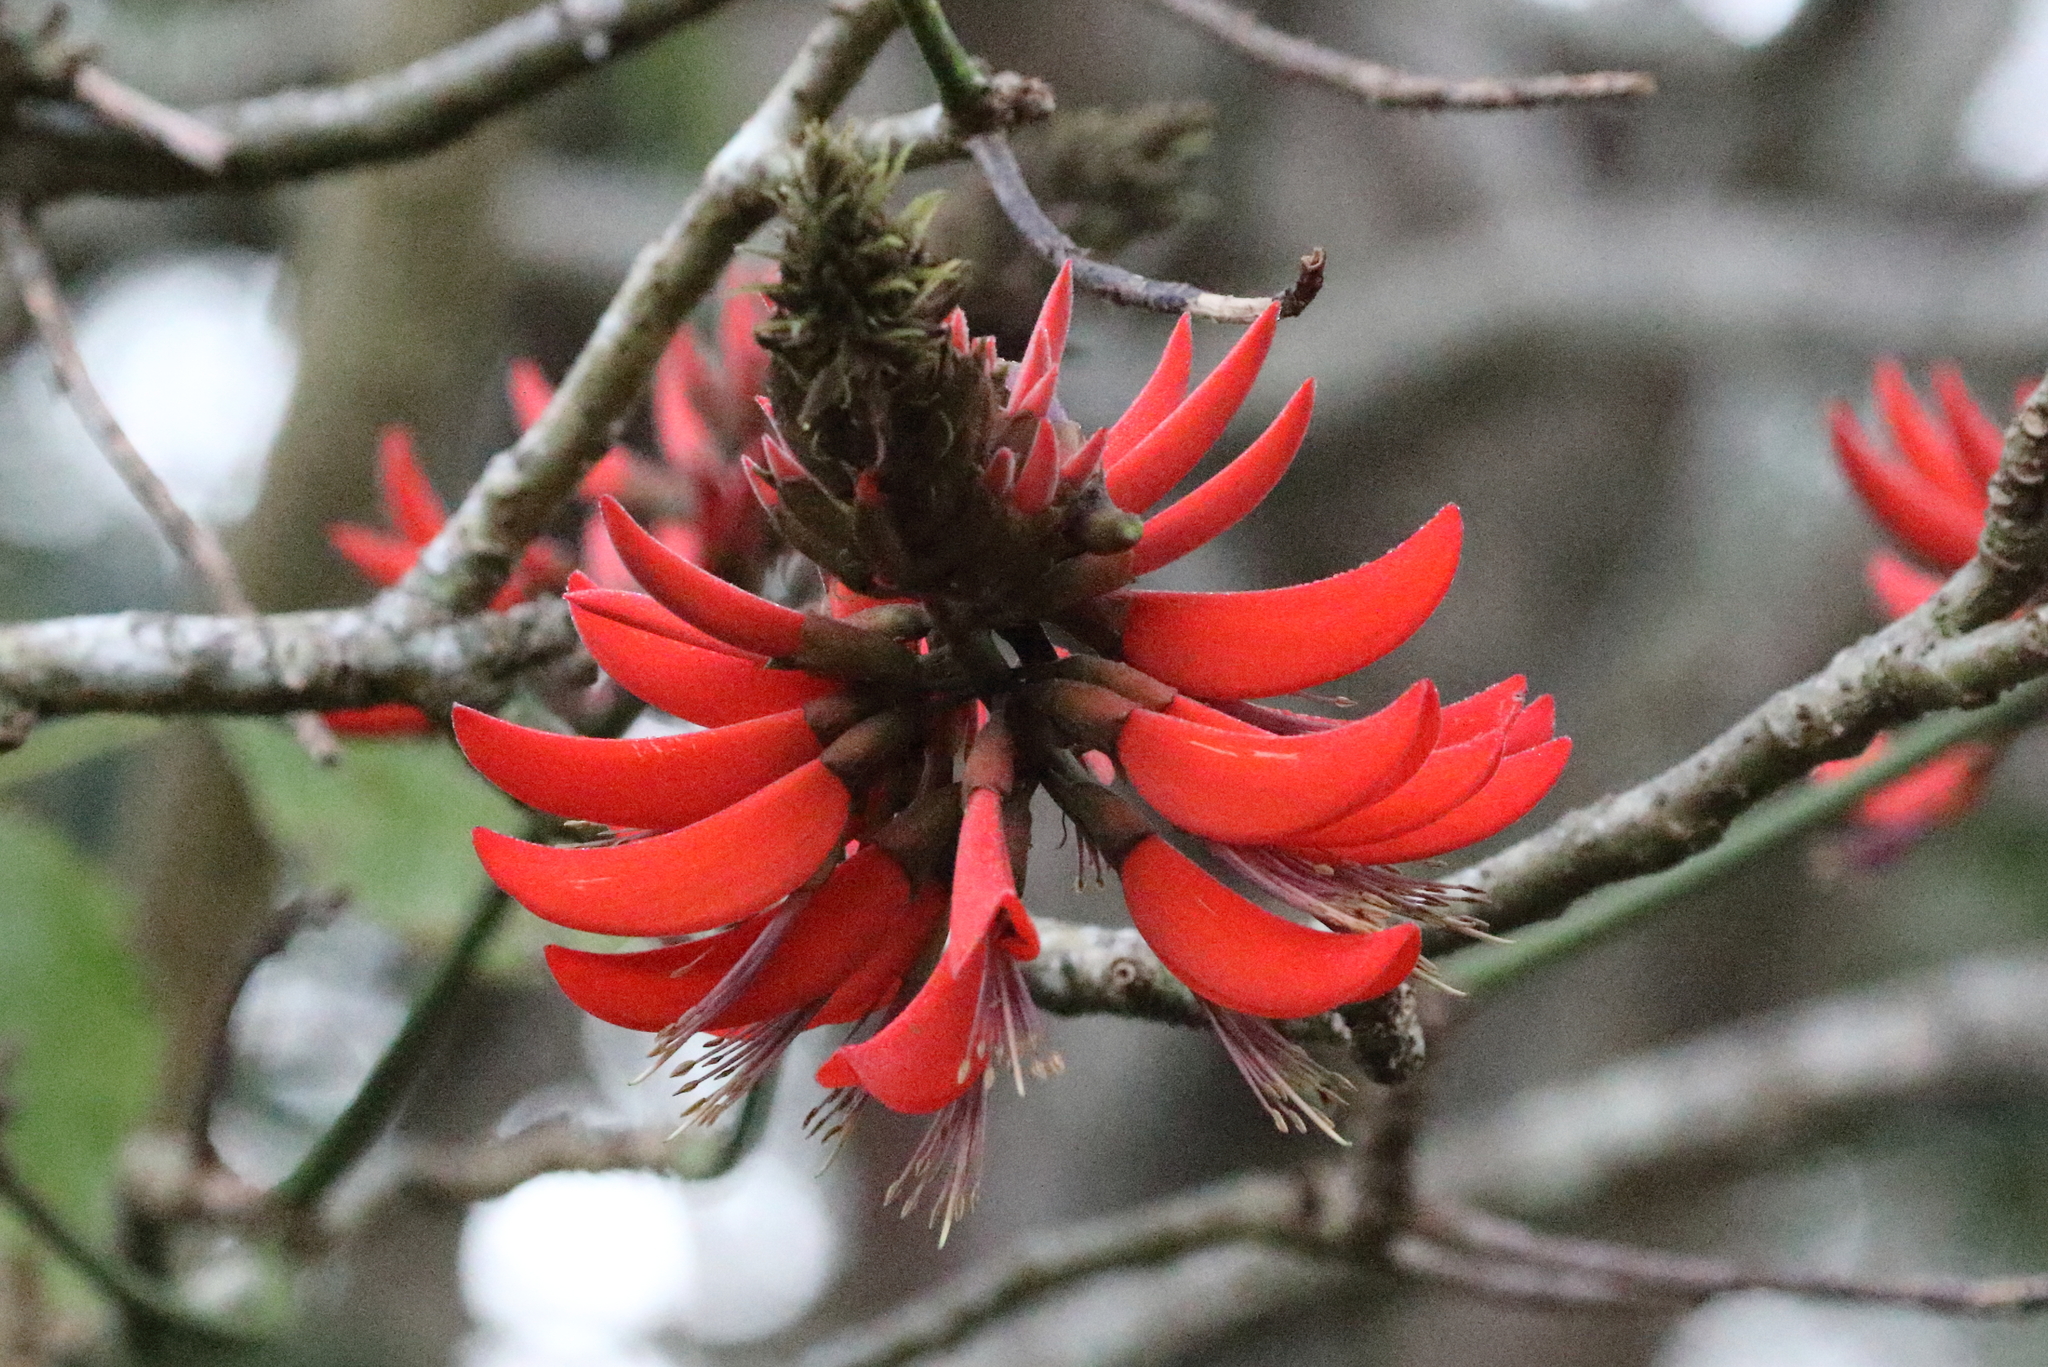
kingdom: Plantae
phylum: Tracheophyta
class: Magnoliopsida
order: Fabales
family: Fabaceae
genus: Erythrina
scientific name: Erythrina sykesii
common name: Coraltree
